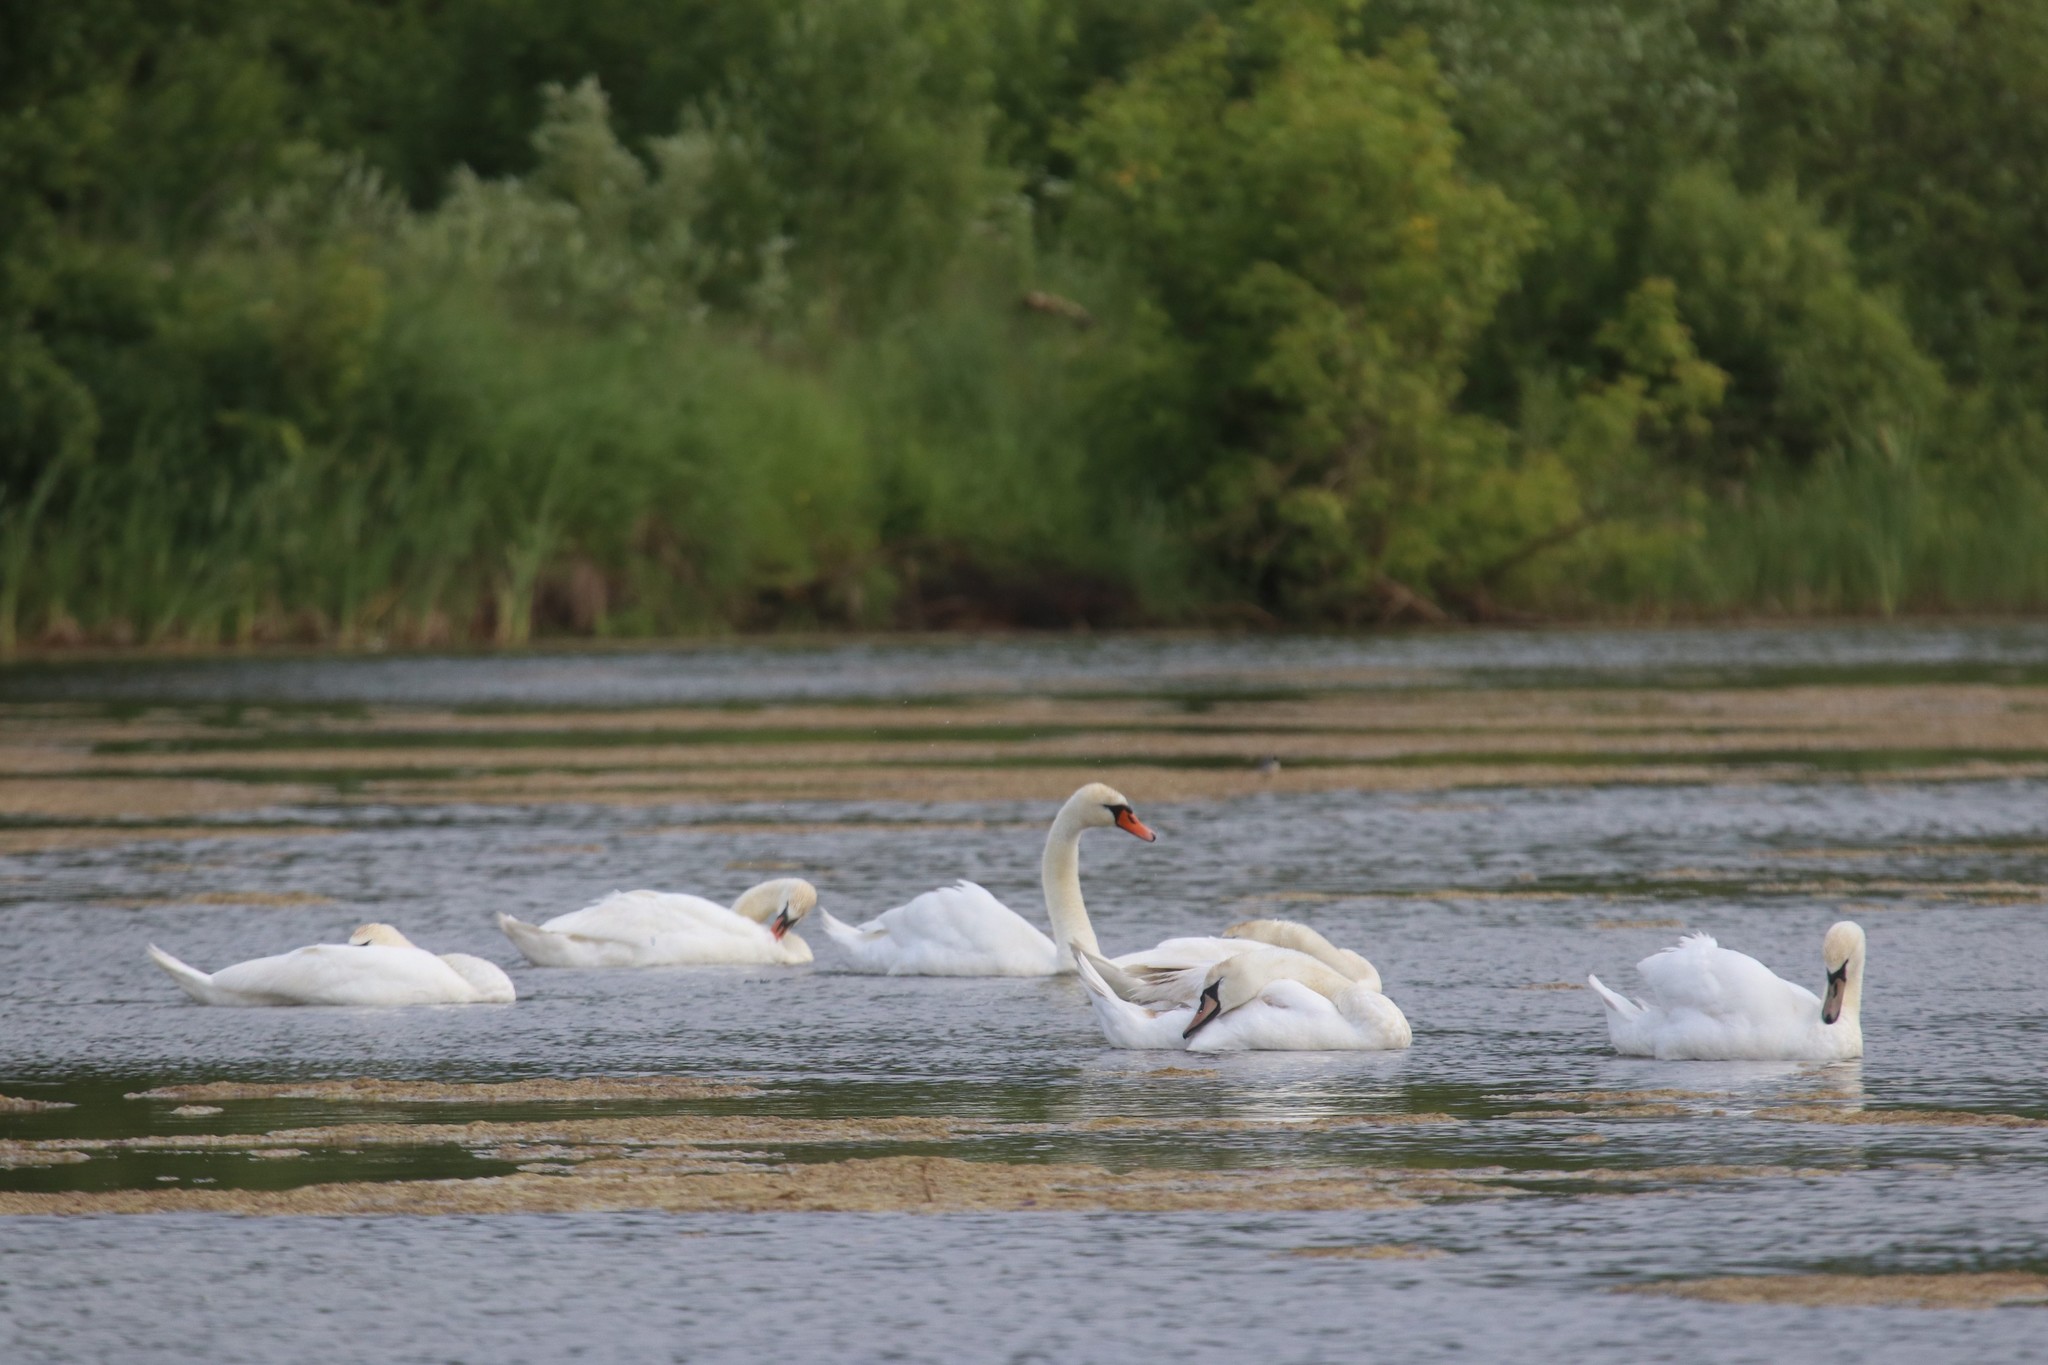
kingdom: Animalia
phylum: Chordata
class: Aves
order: Anseriformes
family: Anatidae
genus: Cygnus
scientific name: Cygnus olor
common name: Mute swan
